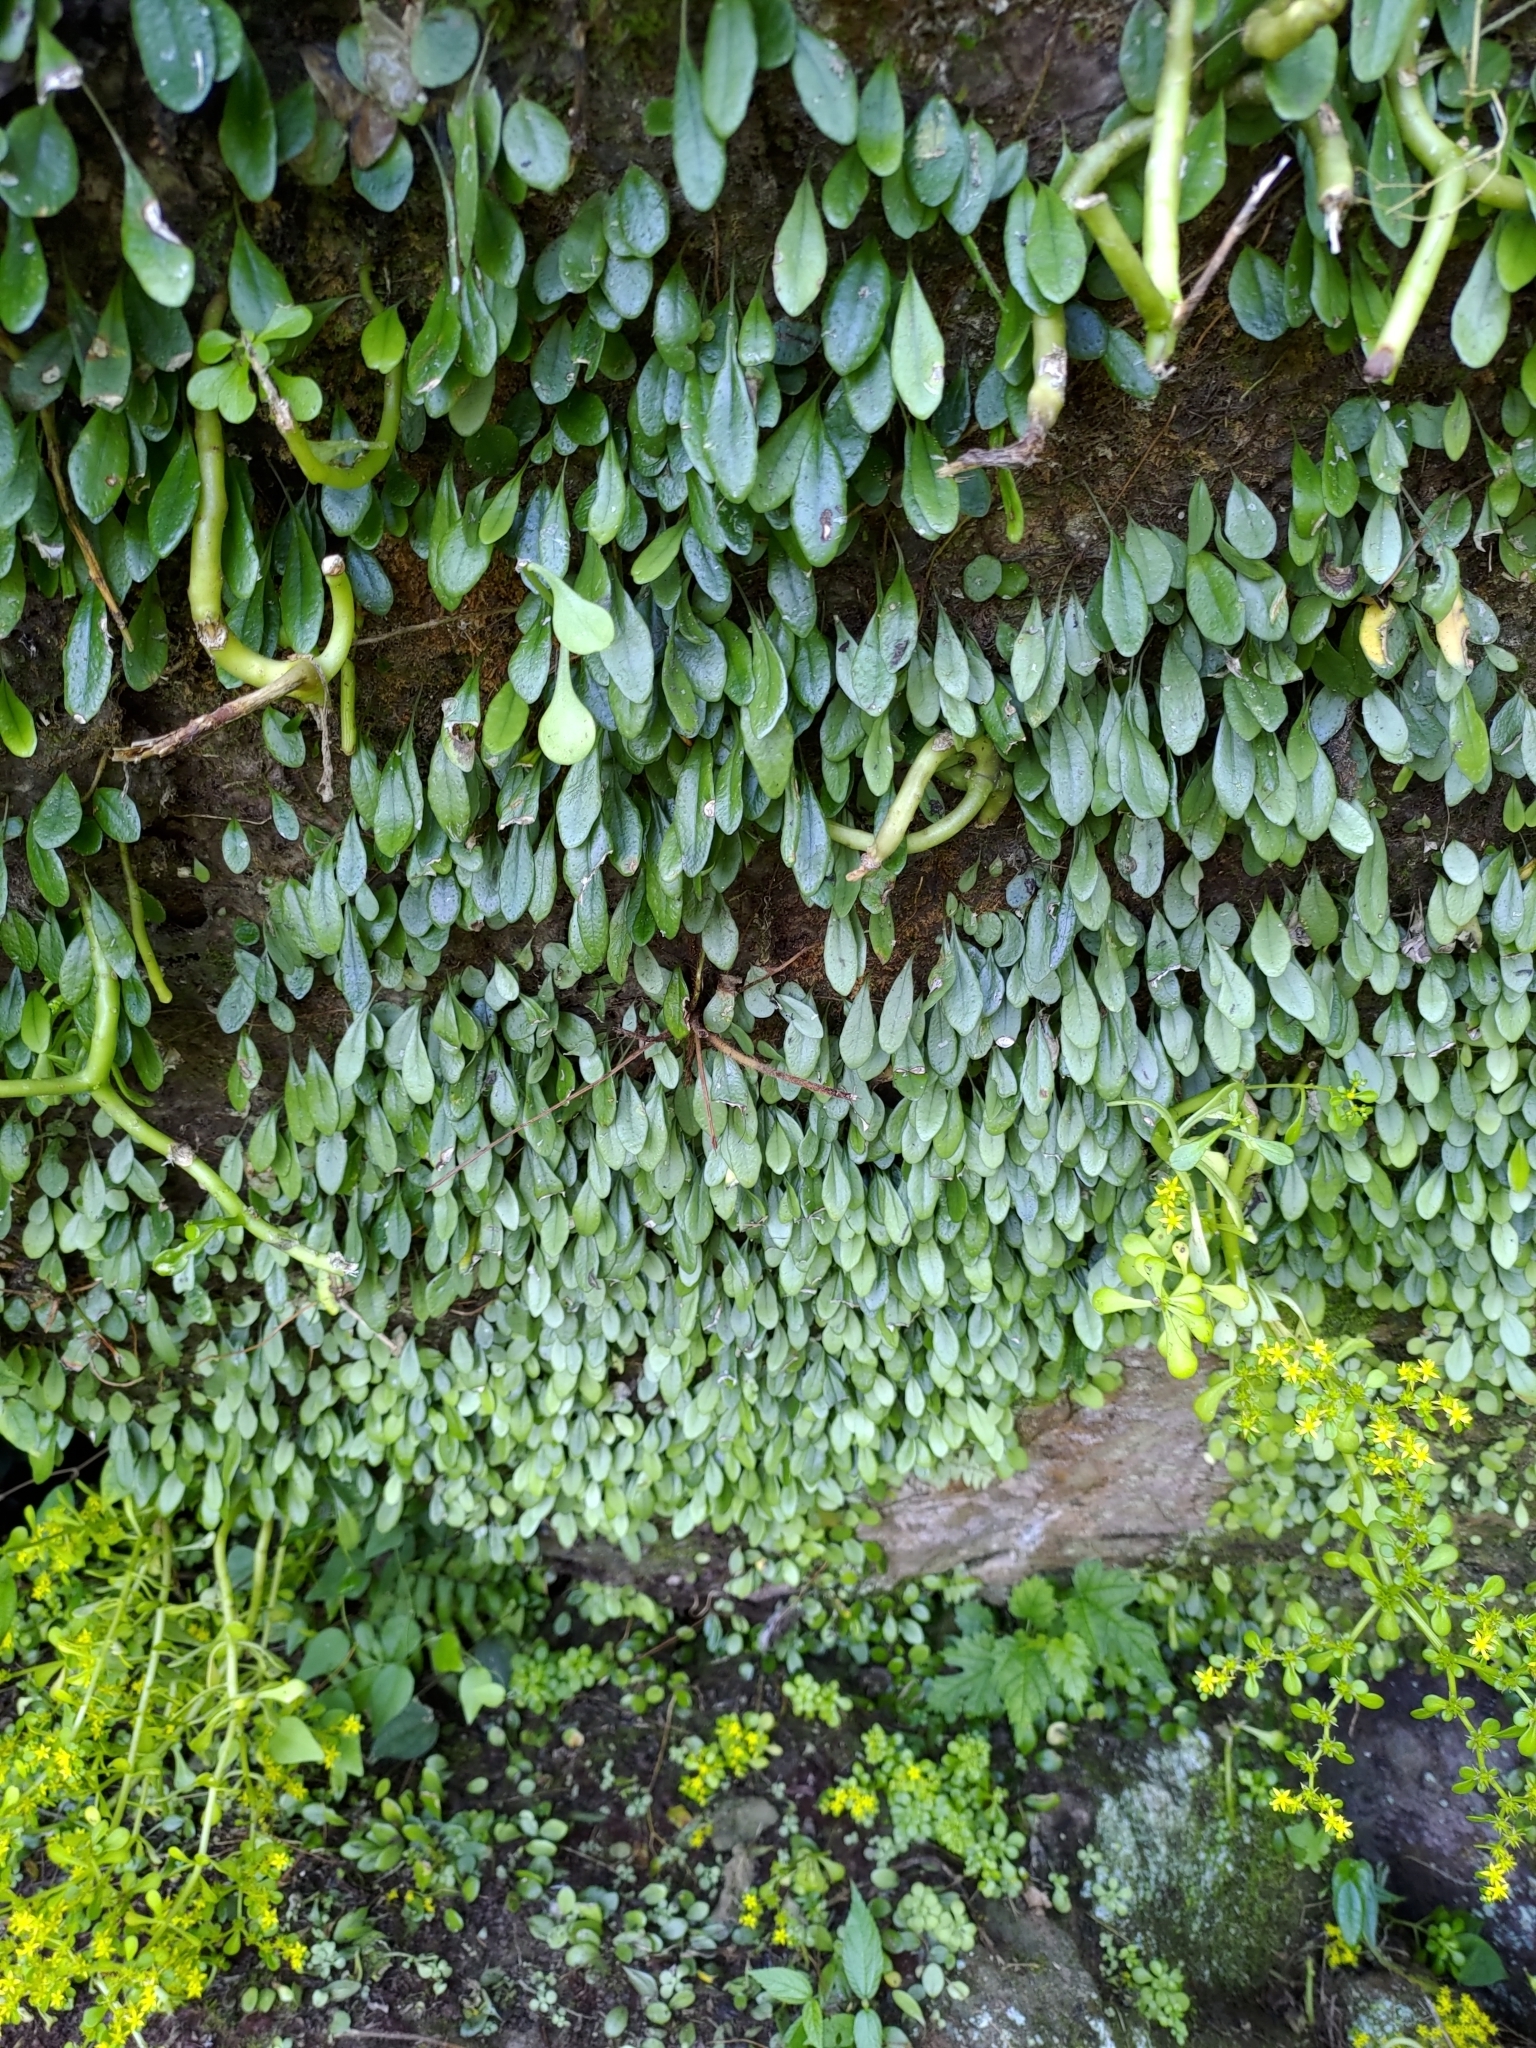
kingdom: Plantae
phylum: Tracheophyta
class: Polypodiopsida
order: Polypodiales
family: Polypodiaceae
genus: Lepisorus
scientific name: Lepisorus microphyllus
